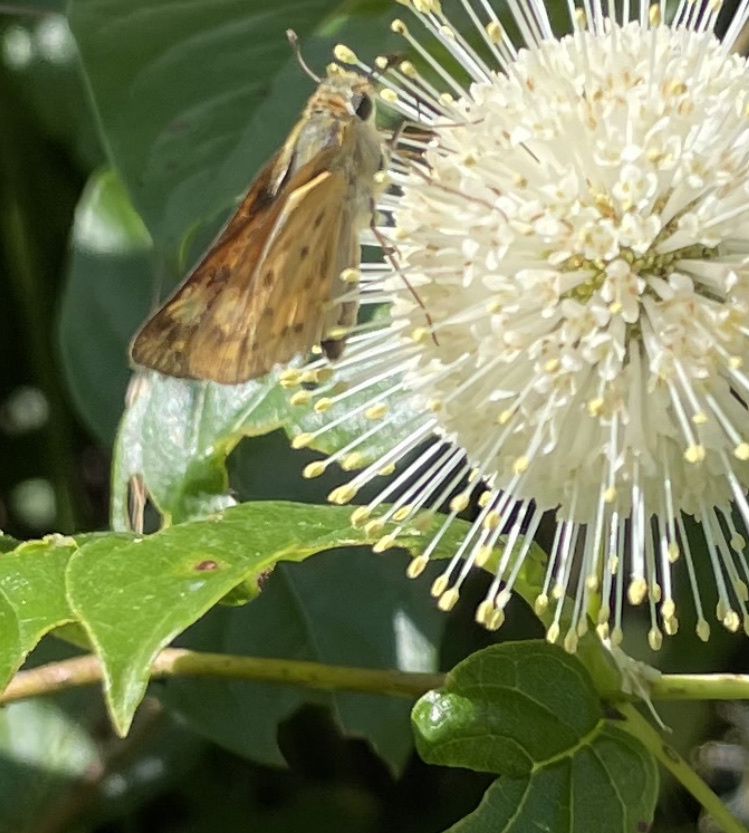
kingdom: Animalia
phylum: Arthropoda
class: Insecta
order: Lepidoptera
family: Hesperiidae
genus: Hylephila
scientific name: Hylephila phyleus
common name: Fiery skipper
